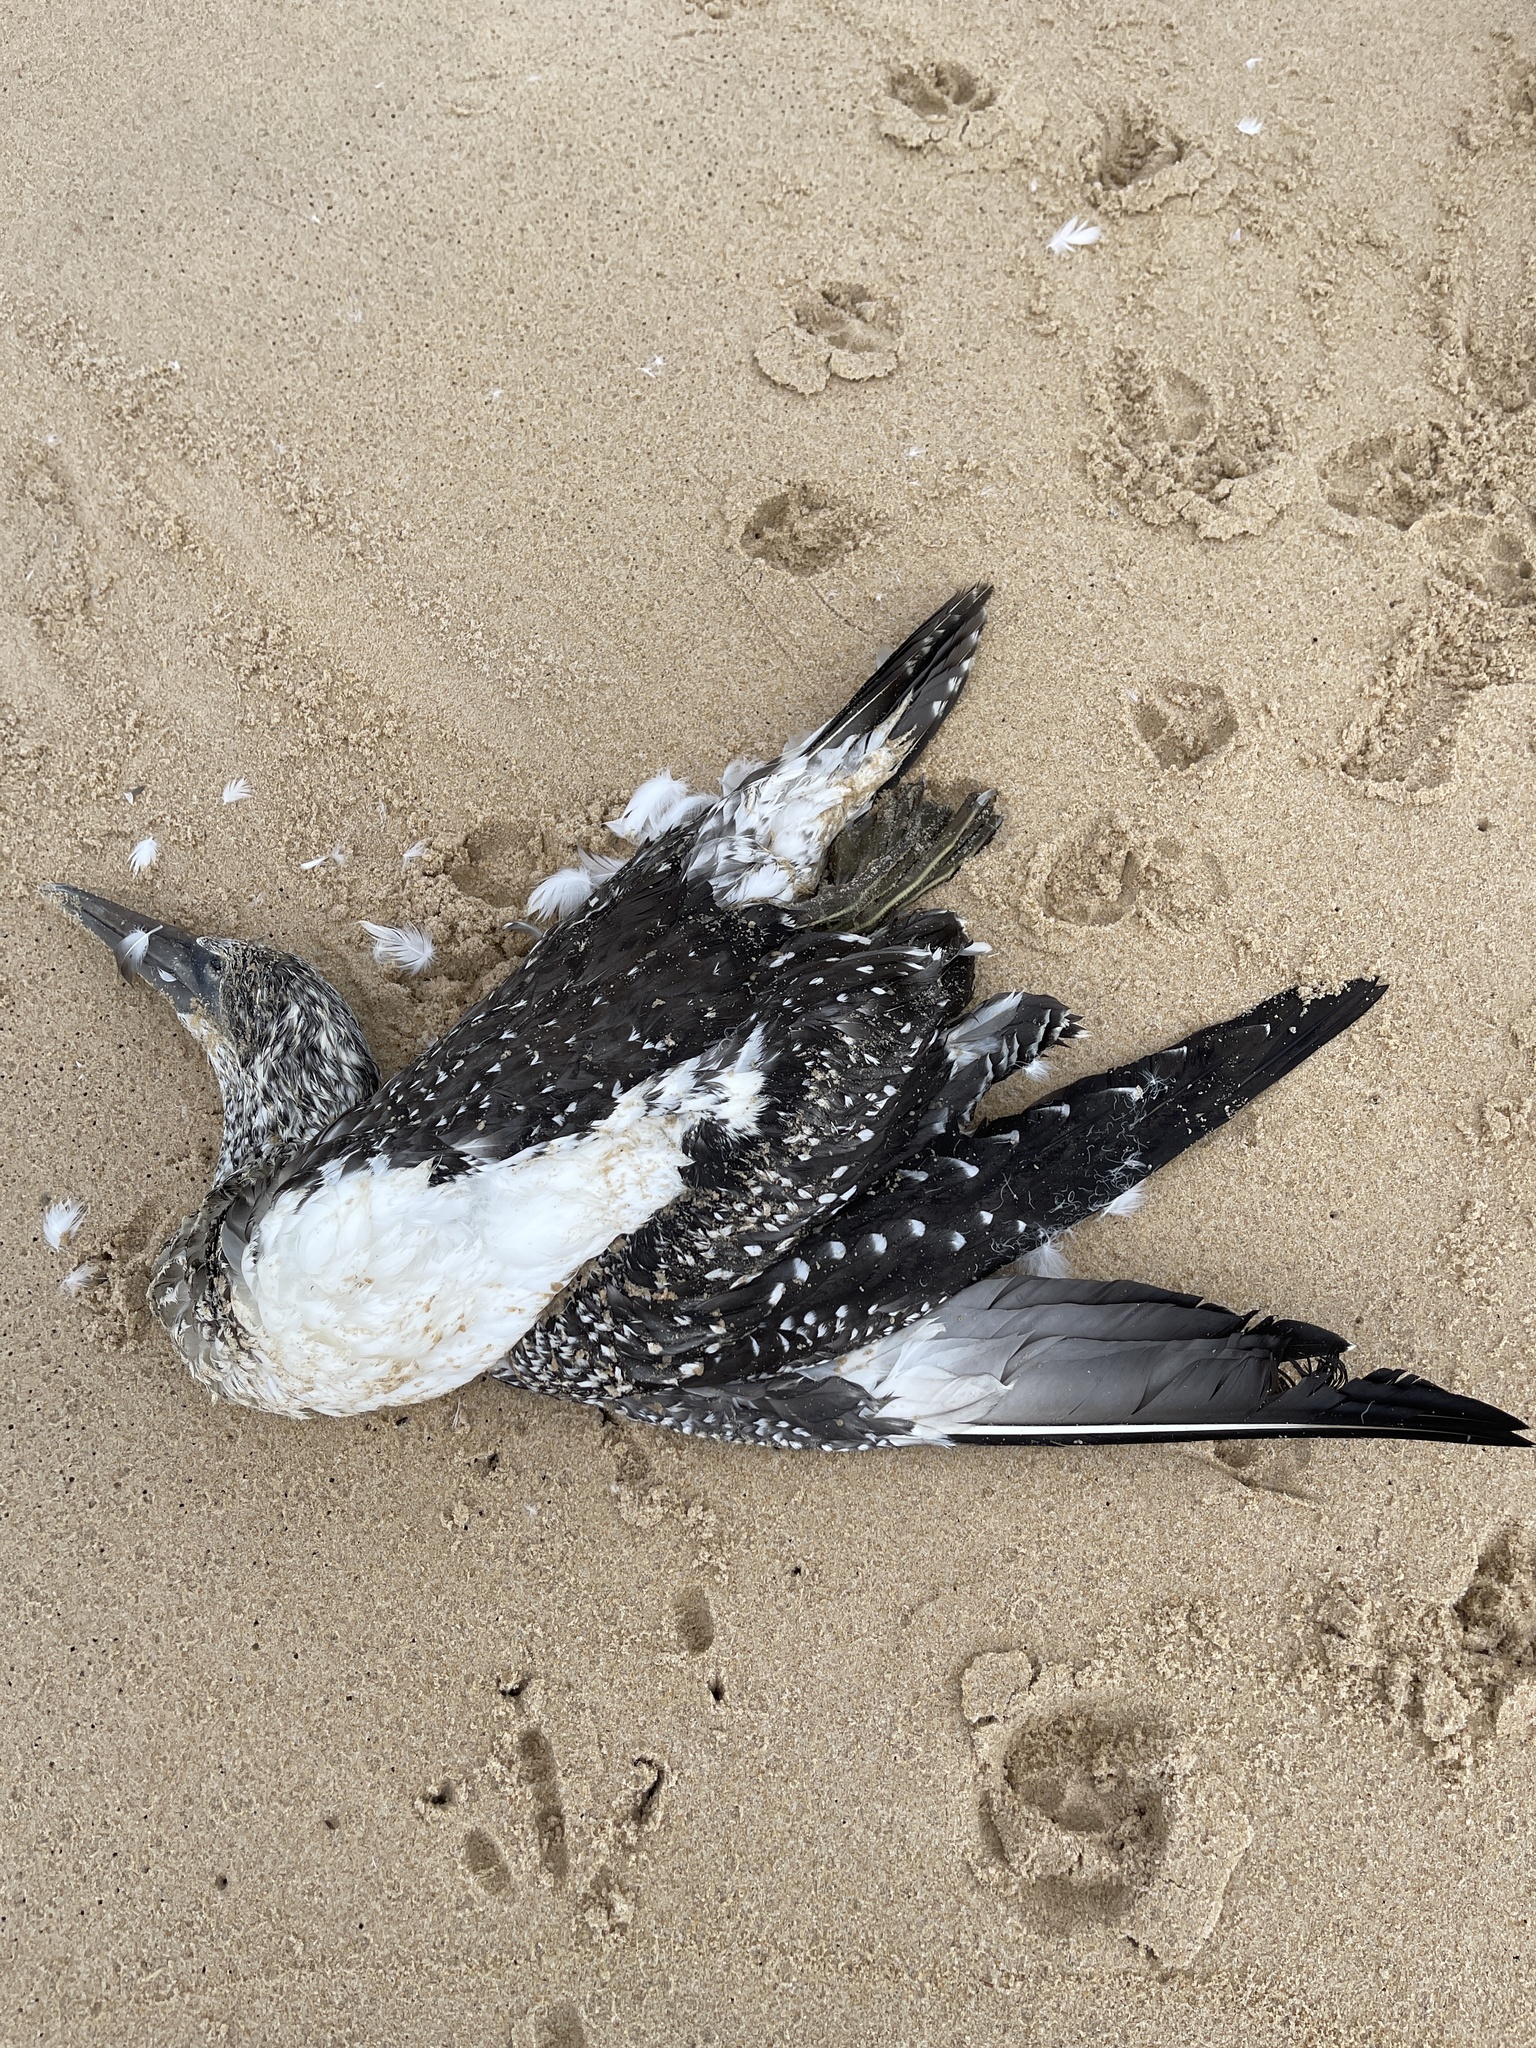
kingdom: Animalia
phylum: Chordata
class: Aves
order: Suliformes
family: Sulidae
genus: Morus
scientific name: Morus serrator
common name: Australasian gannet
